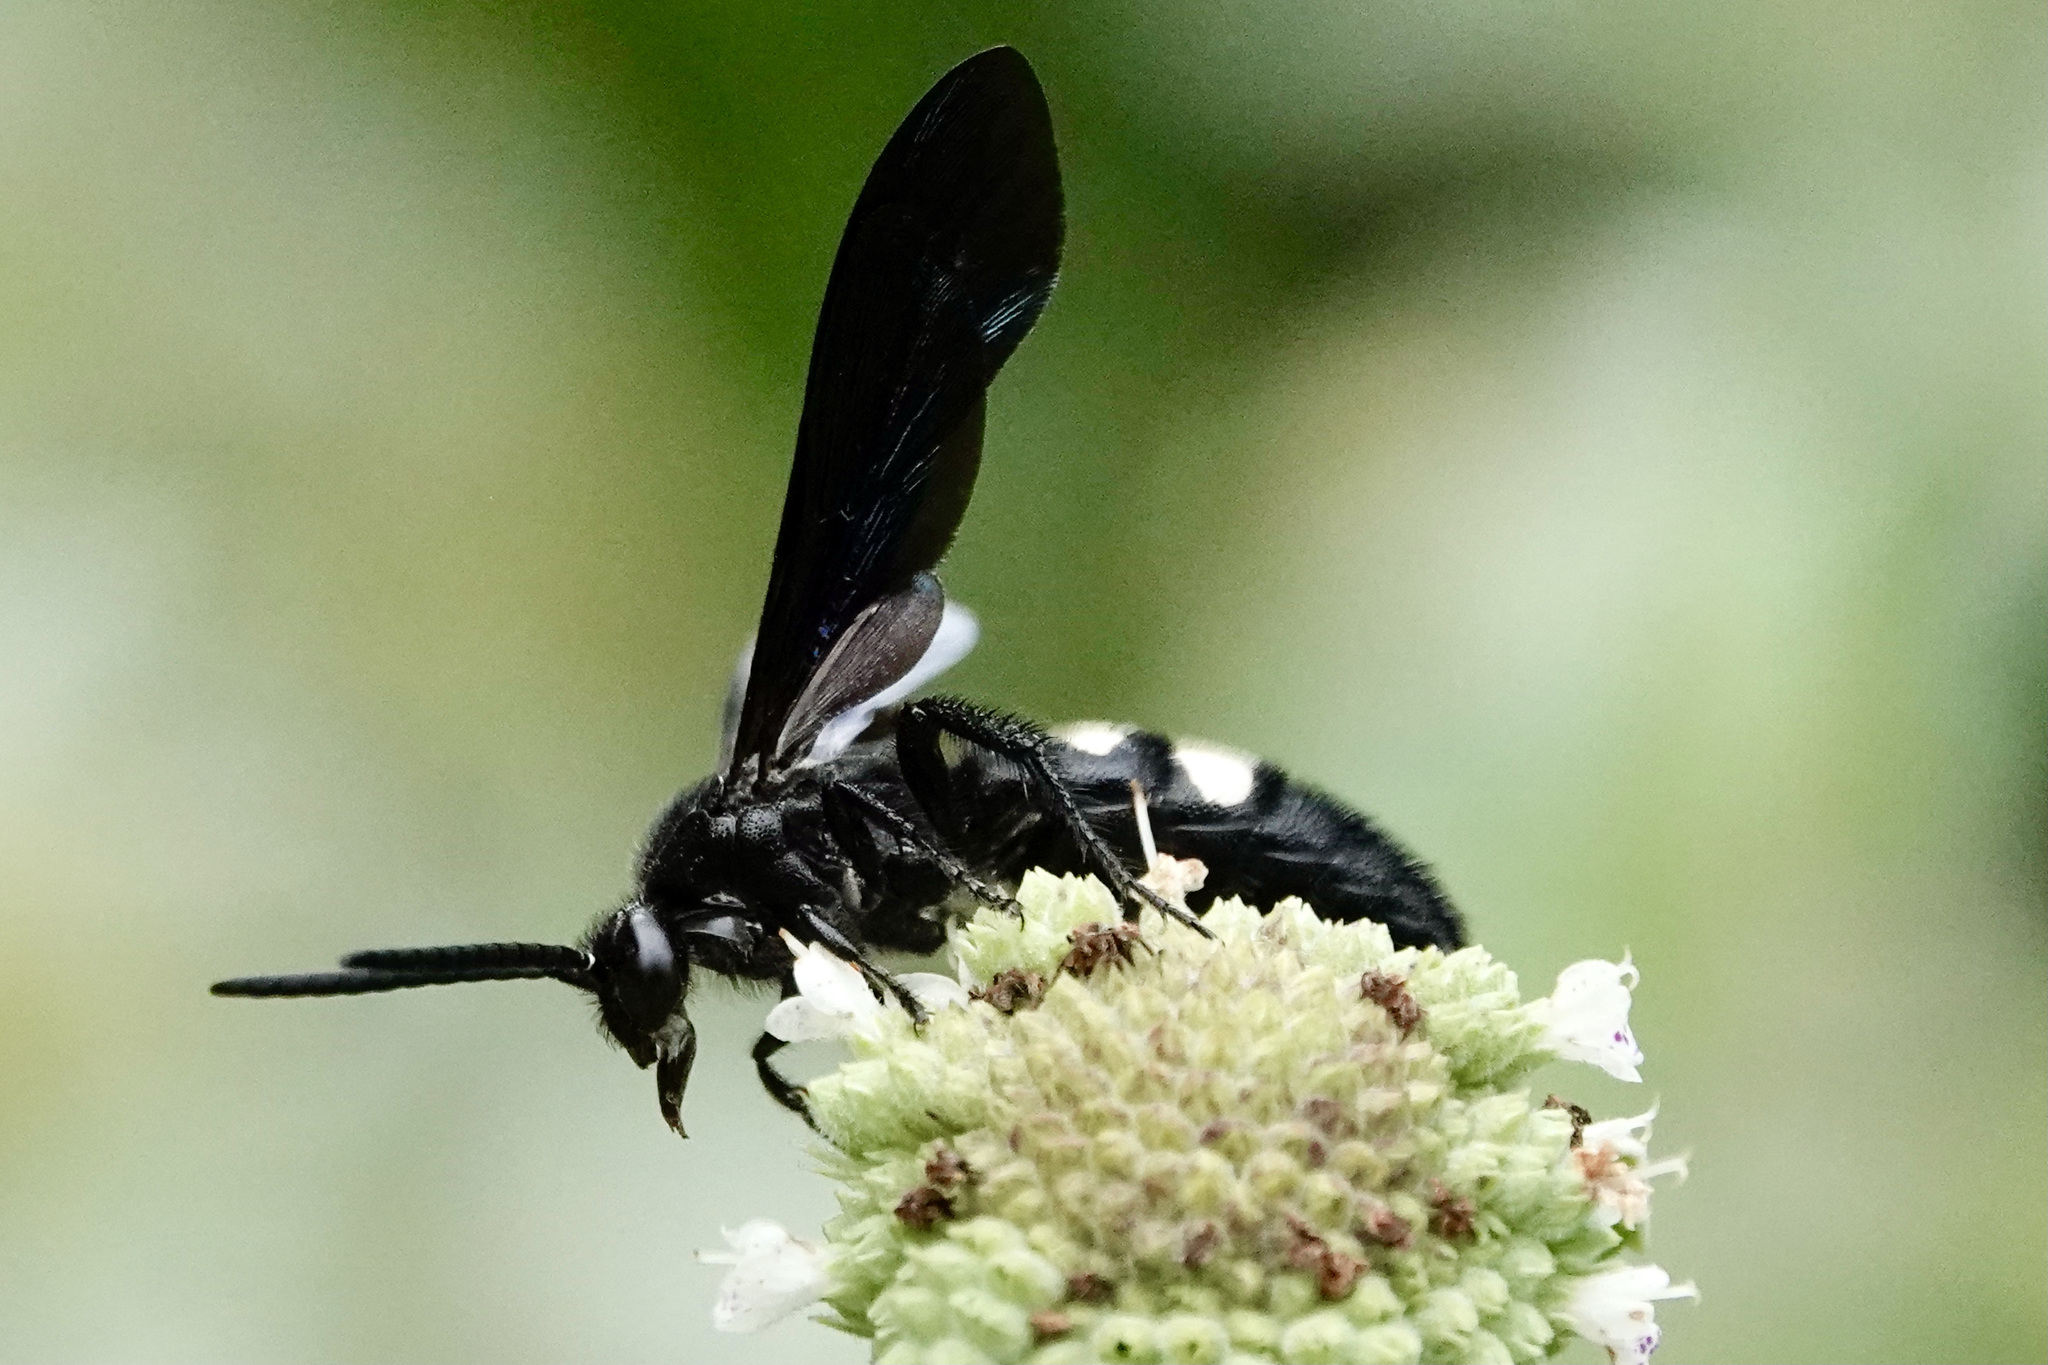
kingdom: Animalia
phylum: Arthropoda
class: Insecta
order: Hymenoptera
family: Scoliidae
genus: Scolia
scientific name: Scolia bicincta
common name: Double-banded scoliid wasp
